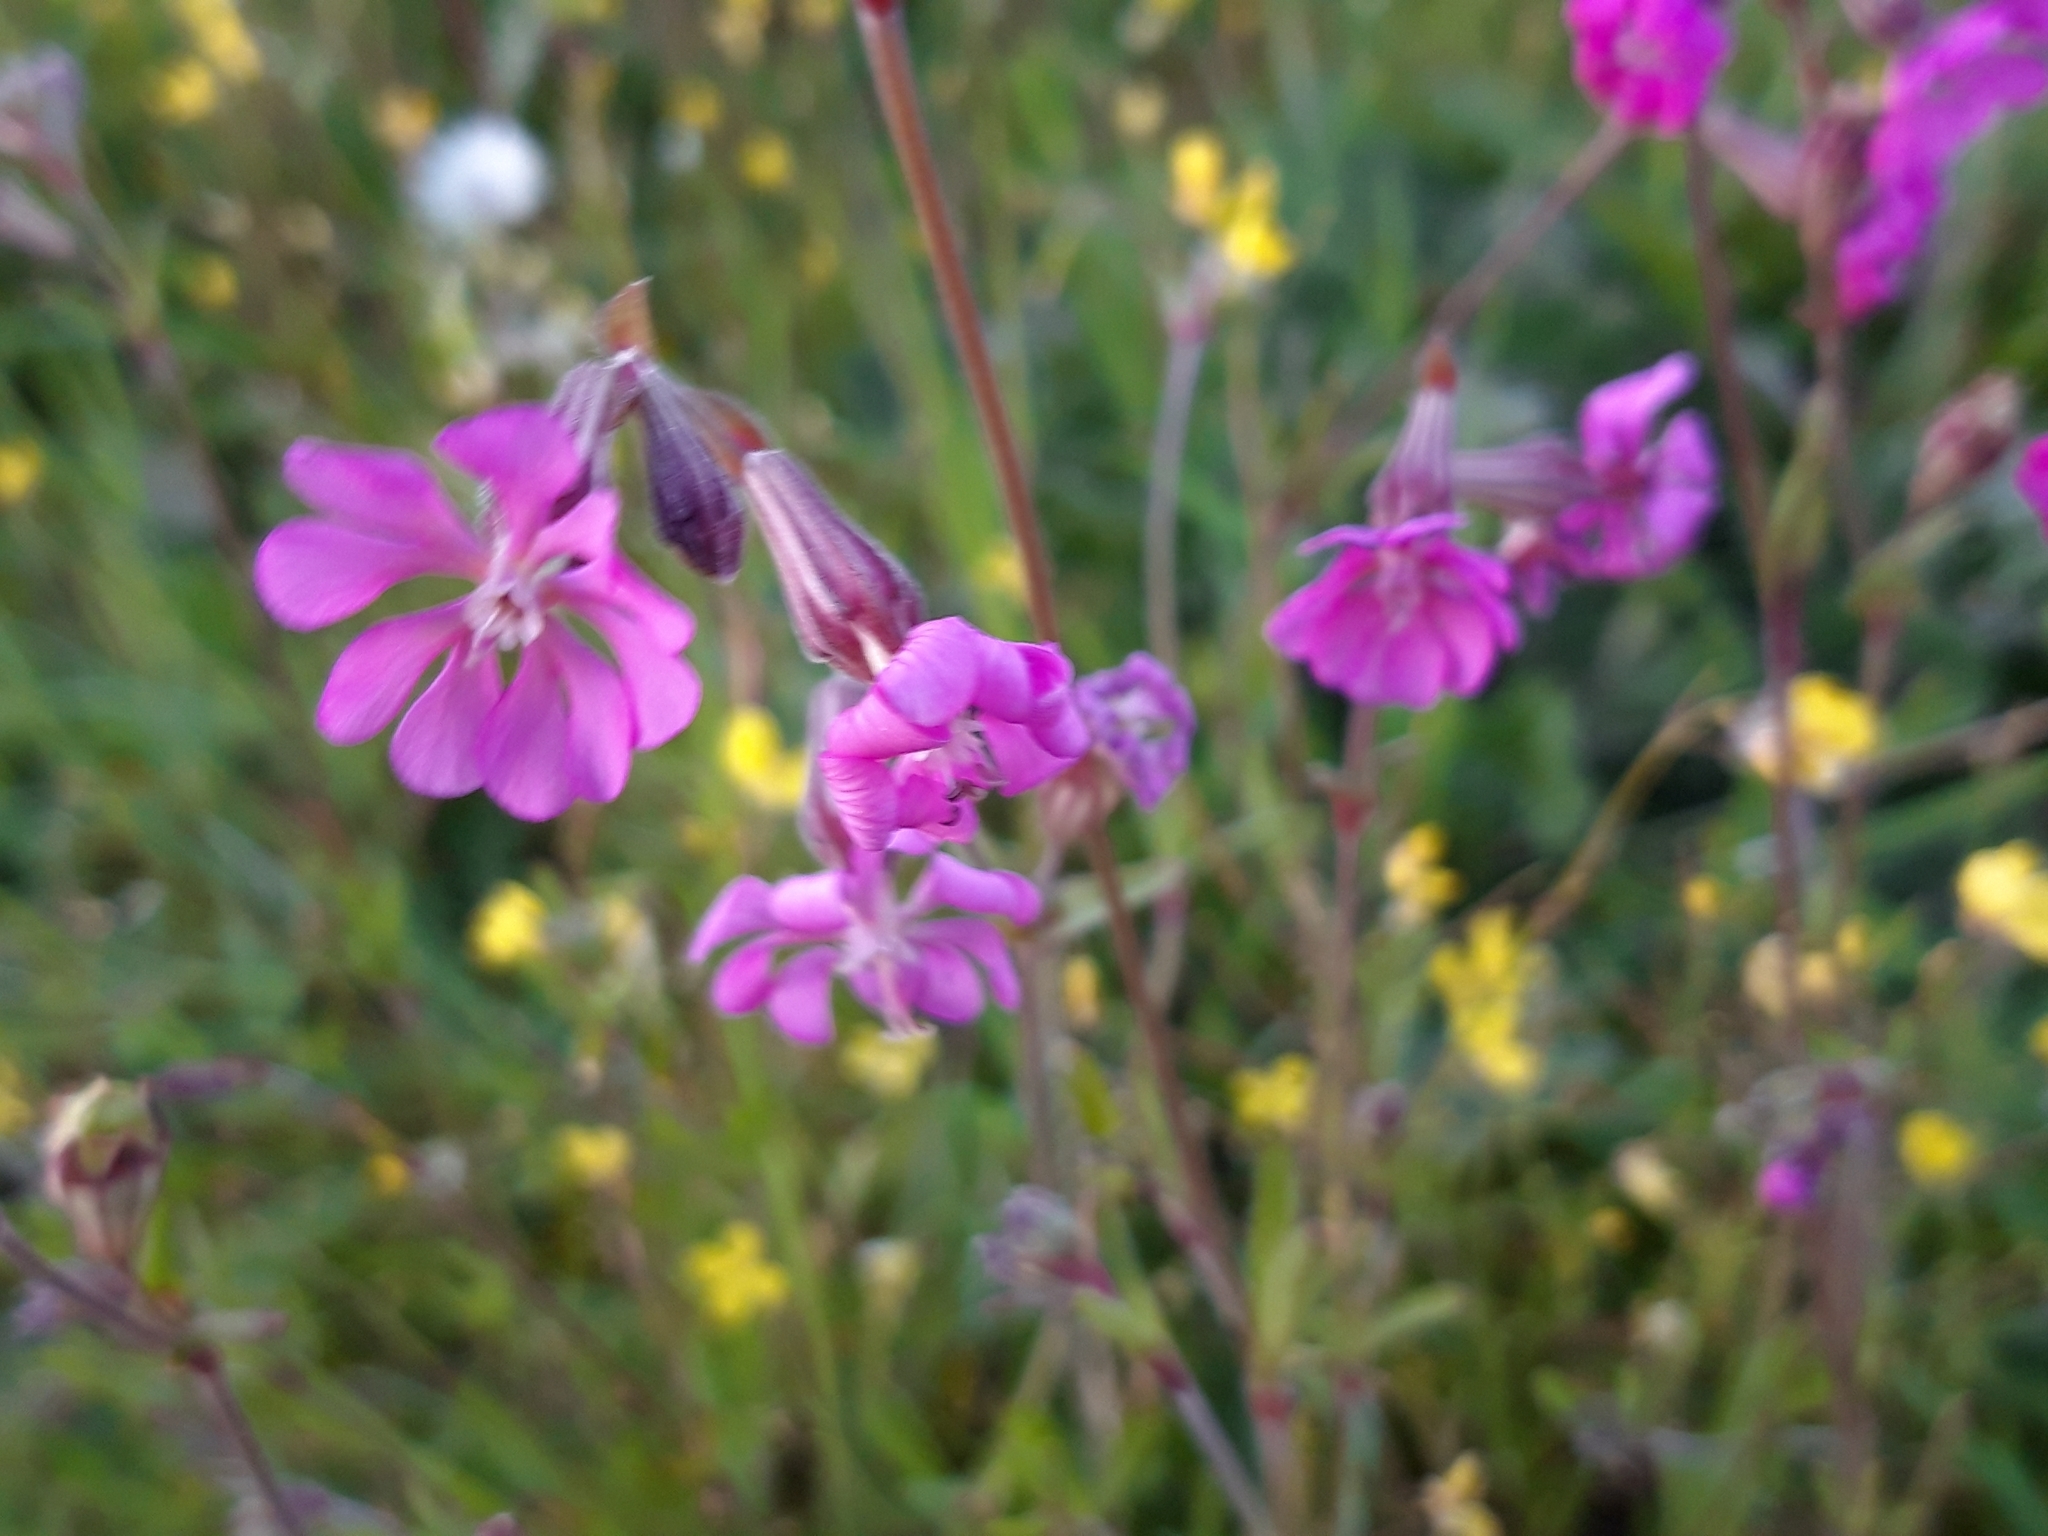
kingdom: Plantae
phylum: Tracheophyta
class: Magnoliopsida
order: Caryophyllales
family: Caryophyllaceae
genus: Silene
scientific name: Silene colorata
